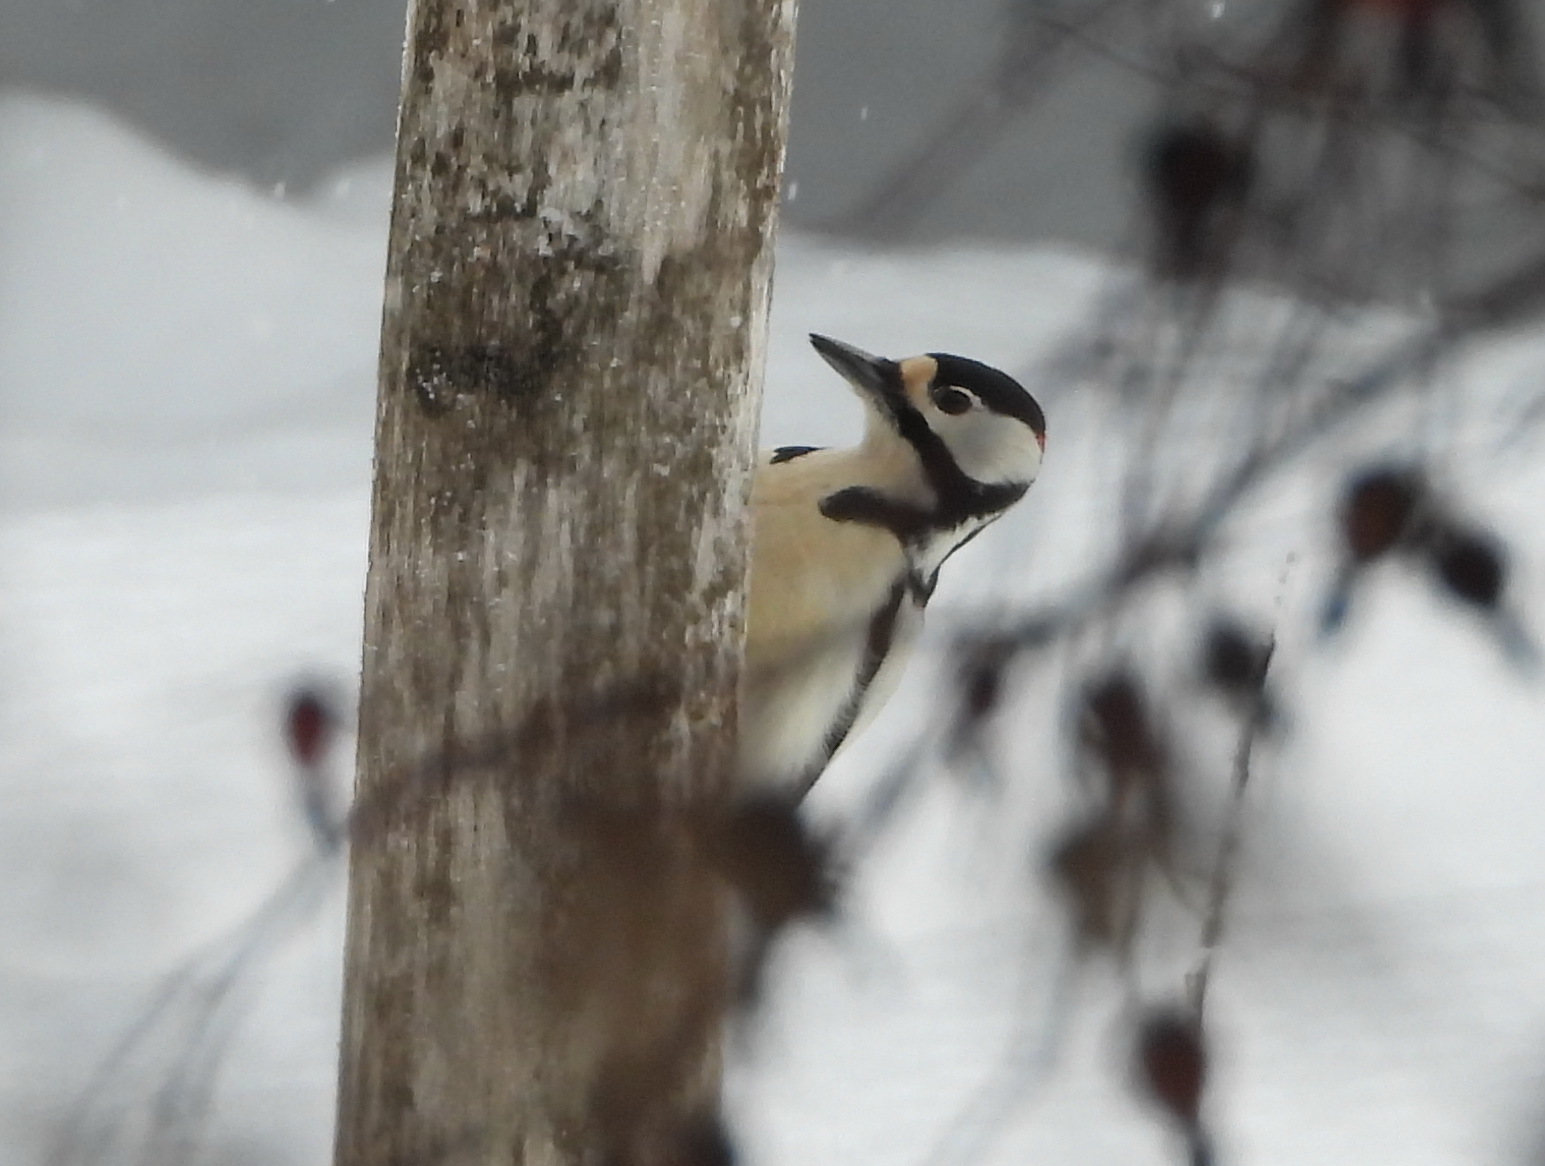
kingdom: Animalia
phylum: Chordata
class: Aves
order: Piciformes
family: Picidae
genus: Dendrocopos
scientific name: Dendrocopos major
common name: Great spotted woodpecker
